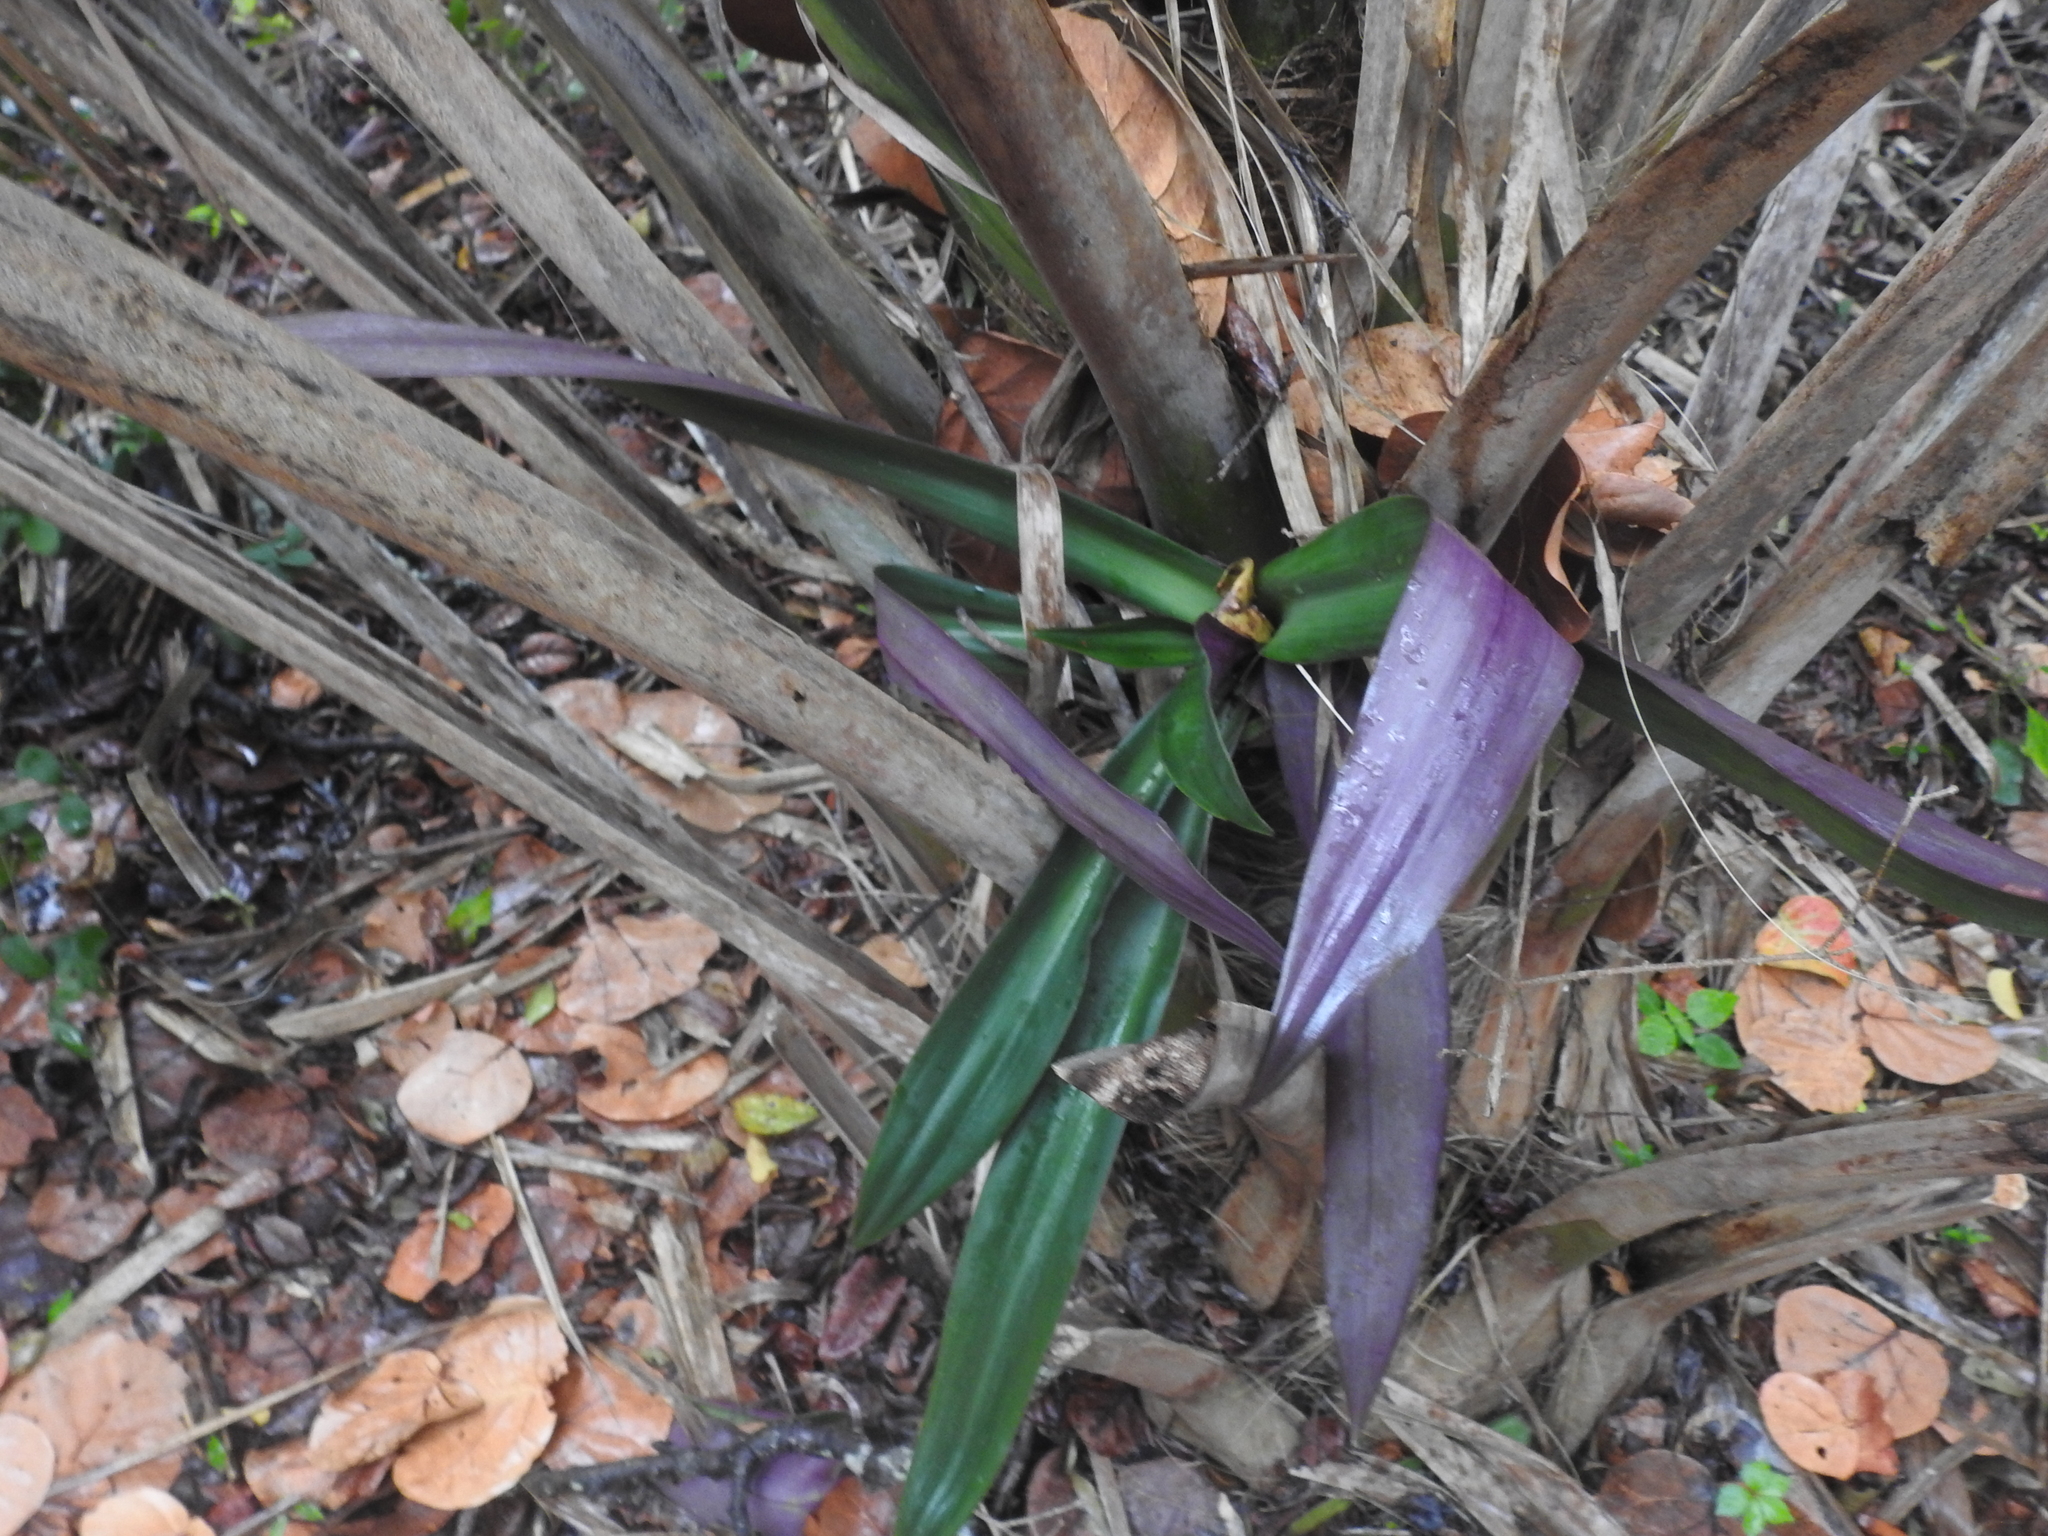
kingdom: Plantae
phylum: Tracheophyta
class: Liliopsida
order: Commelinales
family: Commelinaceae
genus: Tradescantia
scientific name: Tradescantia spathacea
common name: Boatlily
